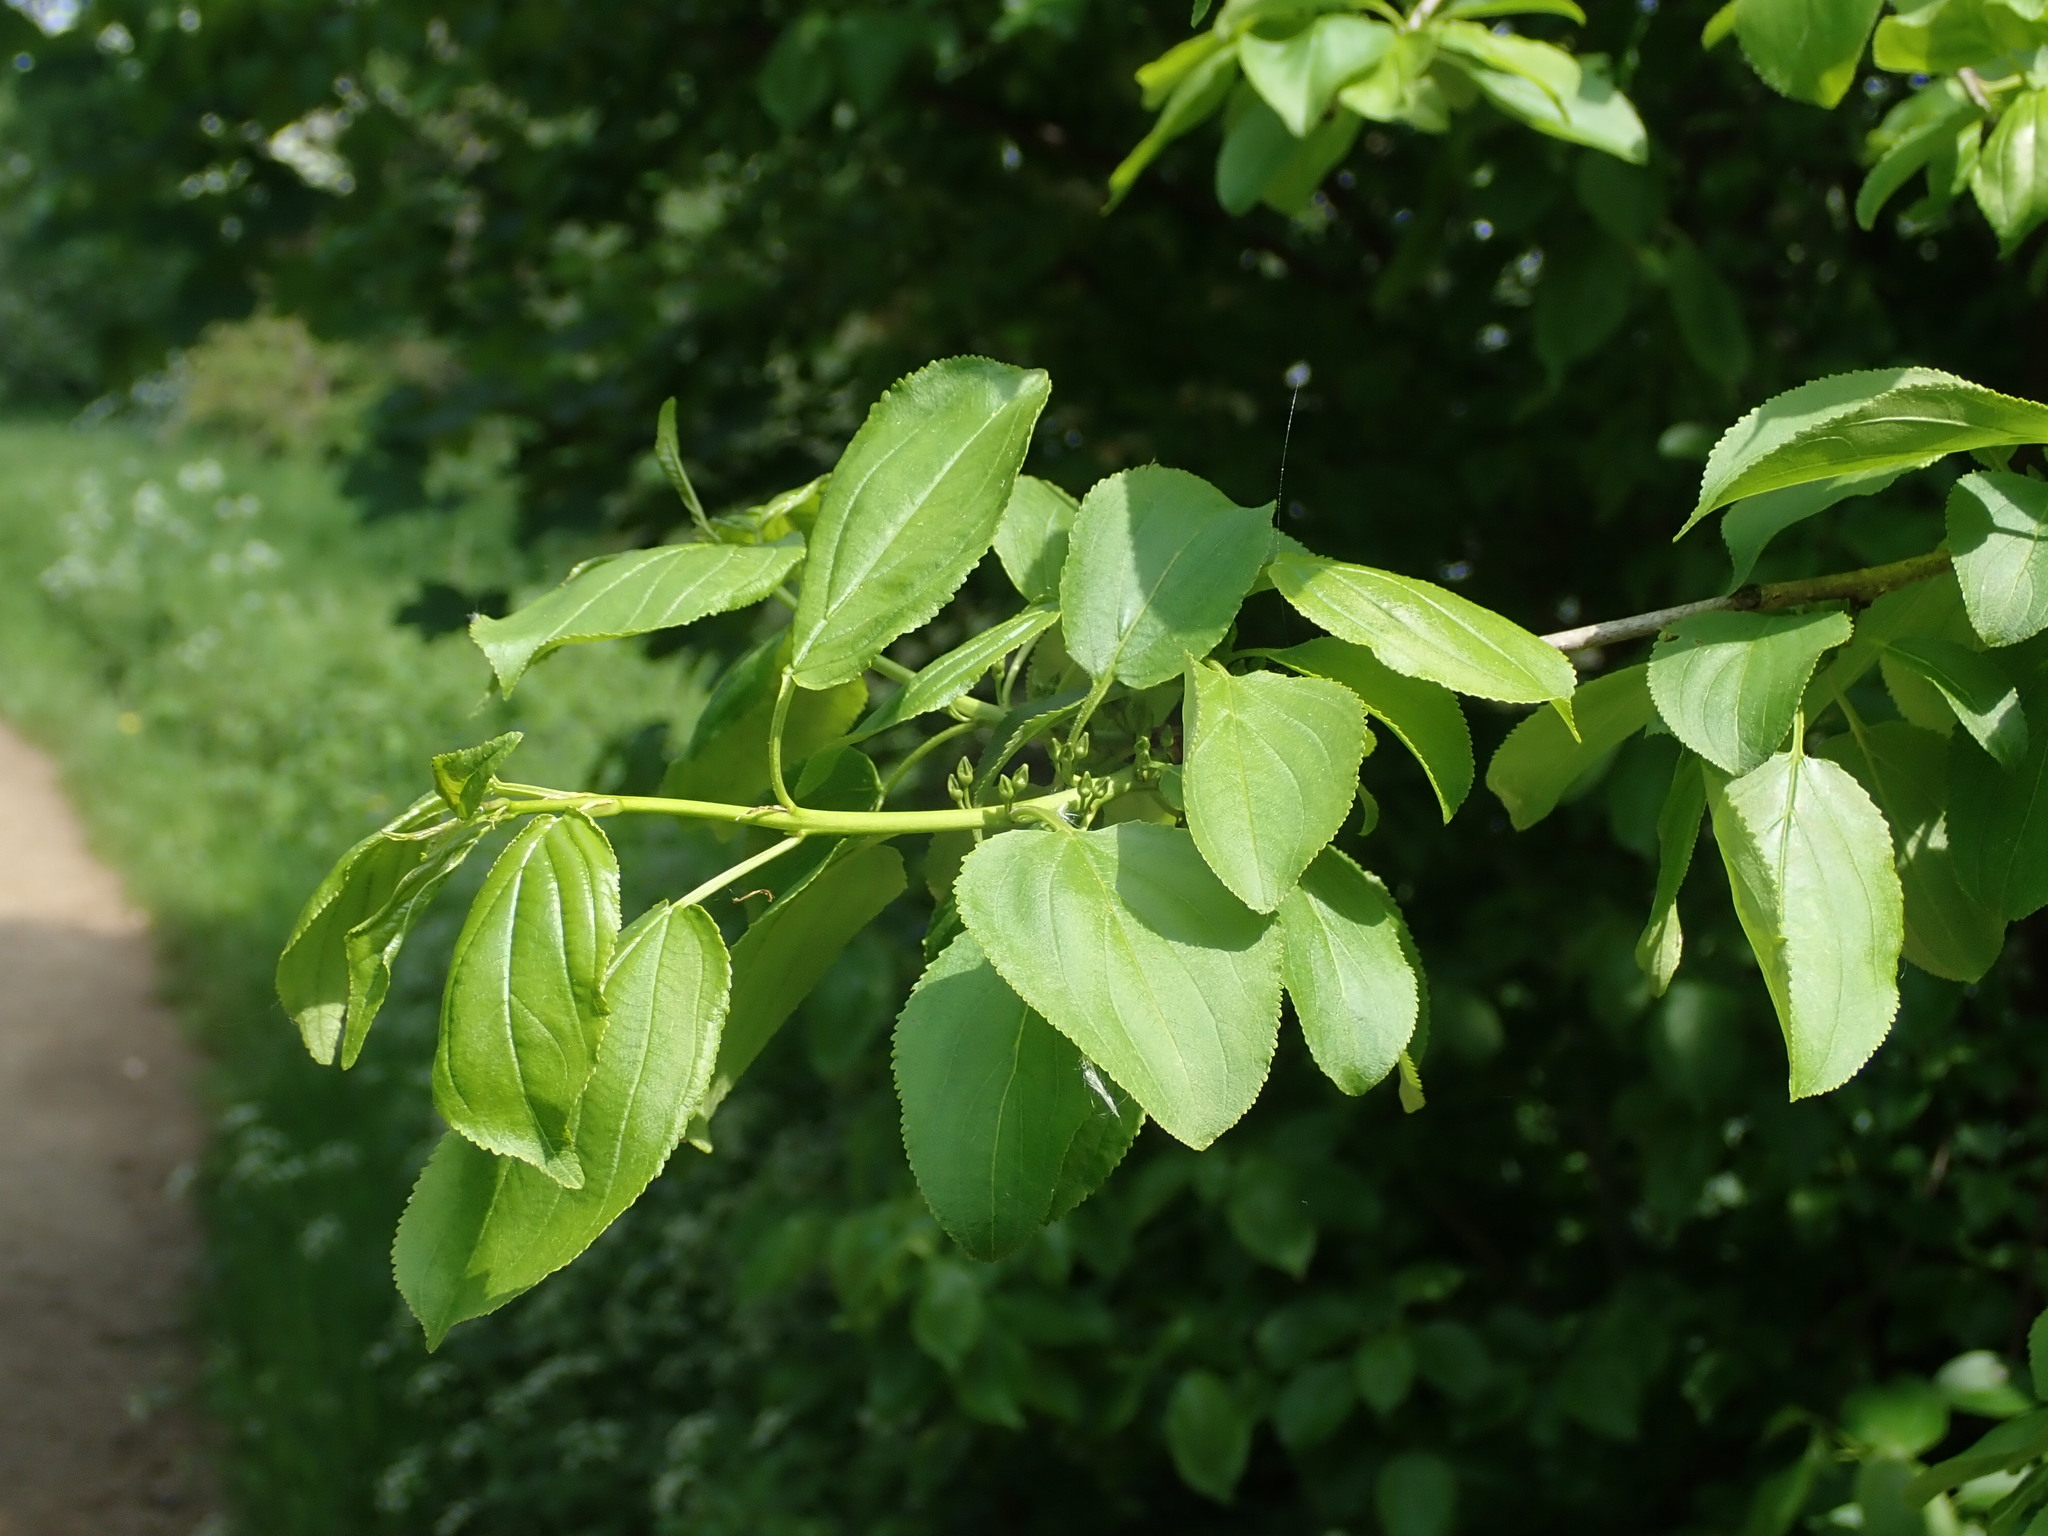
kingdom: Plantae
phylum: Tracheophyta
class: Magnoliopsida
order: Rosales
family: Rhamnaceae
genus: Rhamnus
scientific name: Rhamnus cathartica
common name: Common buckthorn
